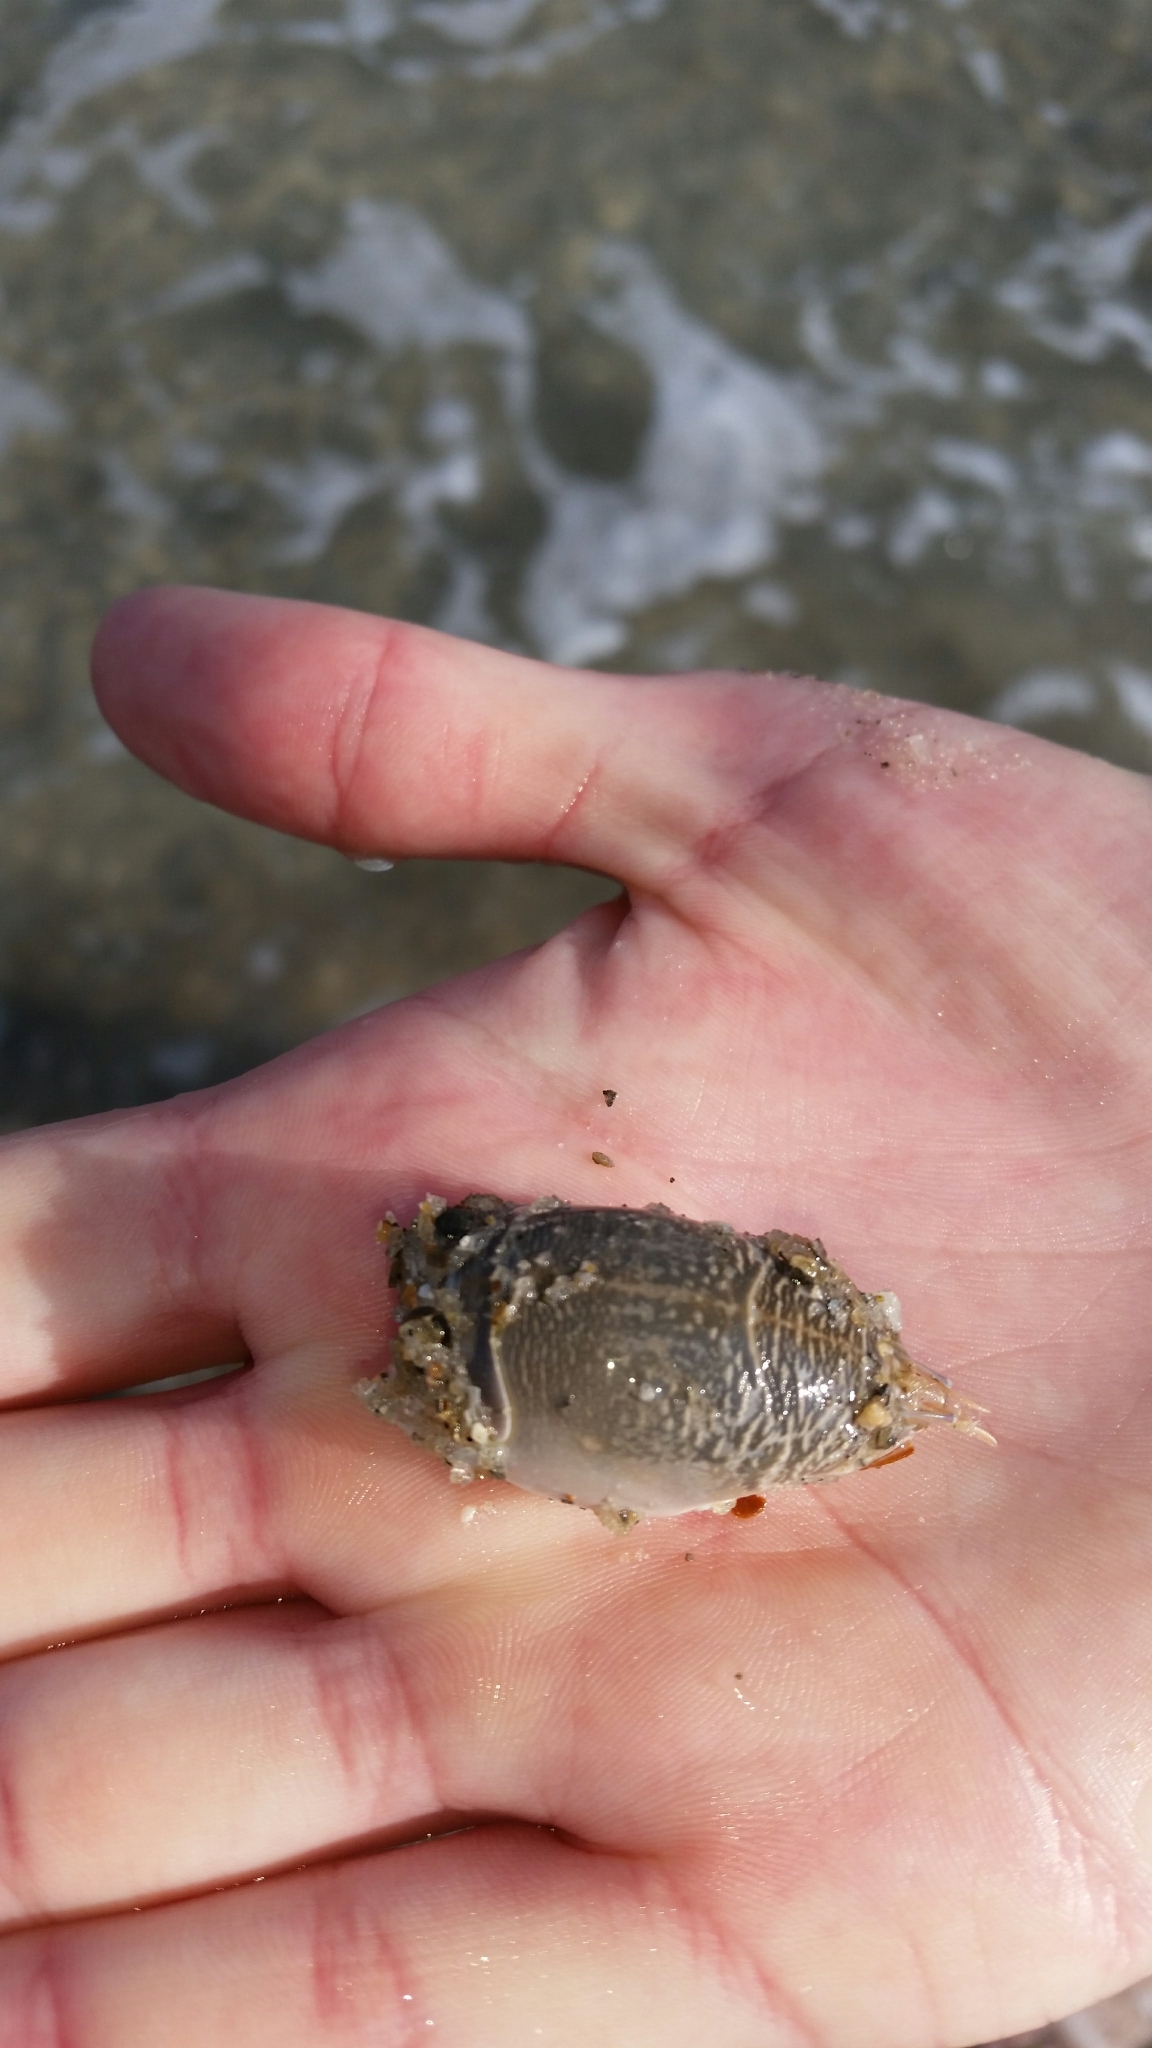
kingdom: Animalia
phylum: Arthropoda
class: Malacostraca
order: Decapoda
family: Hippidae
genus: Emerita
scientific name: Emerita talpoida
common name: Atlantic sand crab
